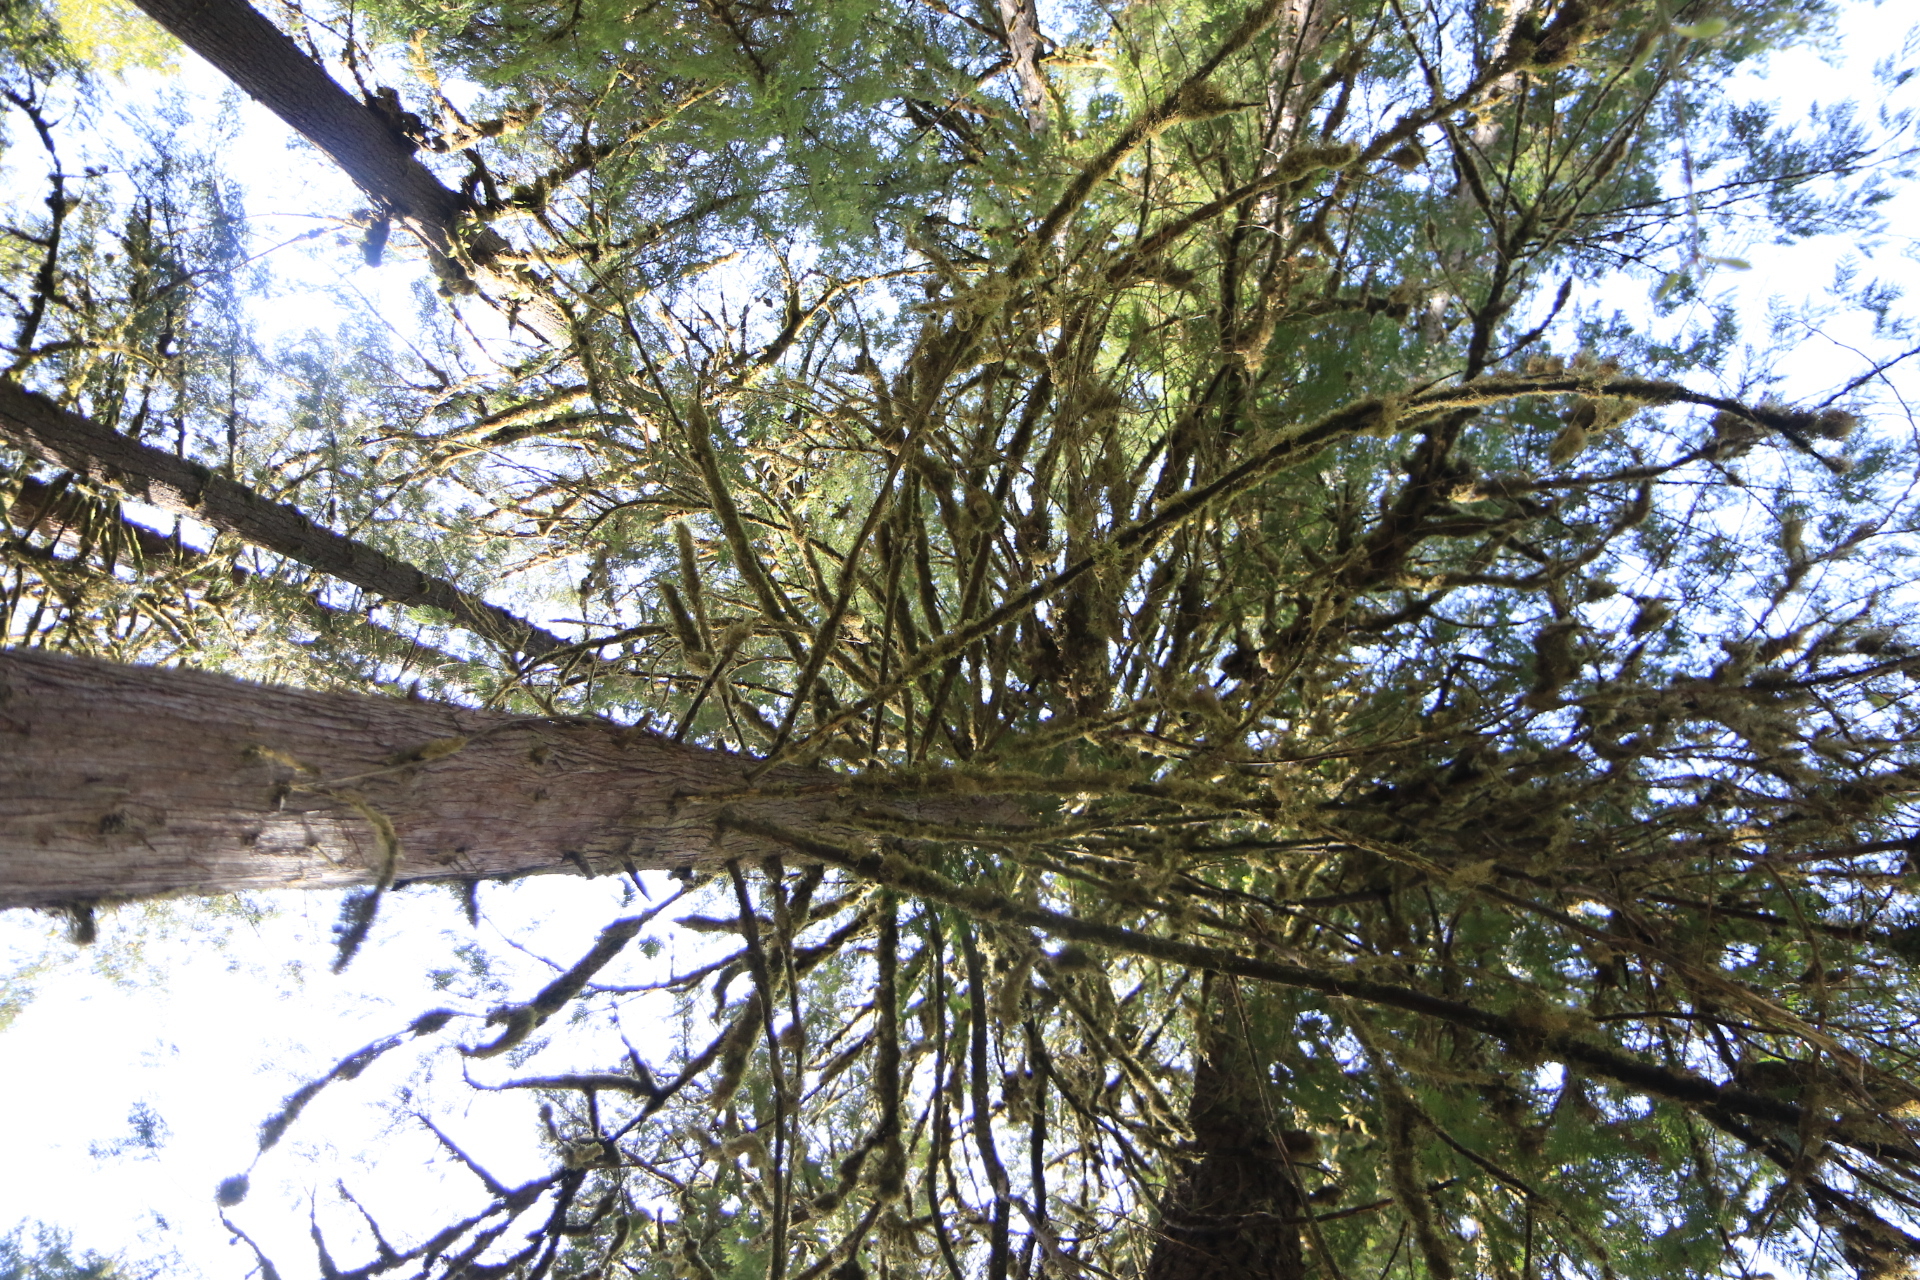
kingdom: Plantae
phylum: Tracheophyta
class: Pinopsida
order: Pinales
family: Cupressaceae
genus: Thuja
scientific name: Thuja plicata
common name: Western red-cedar
